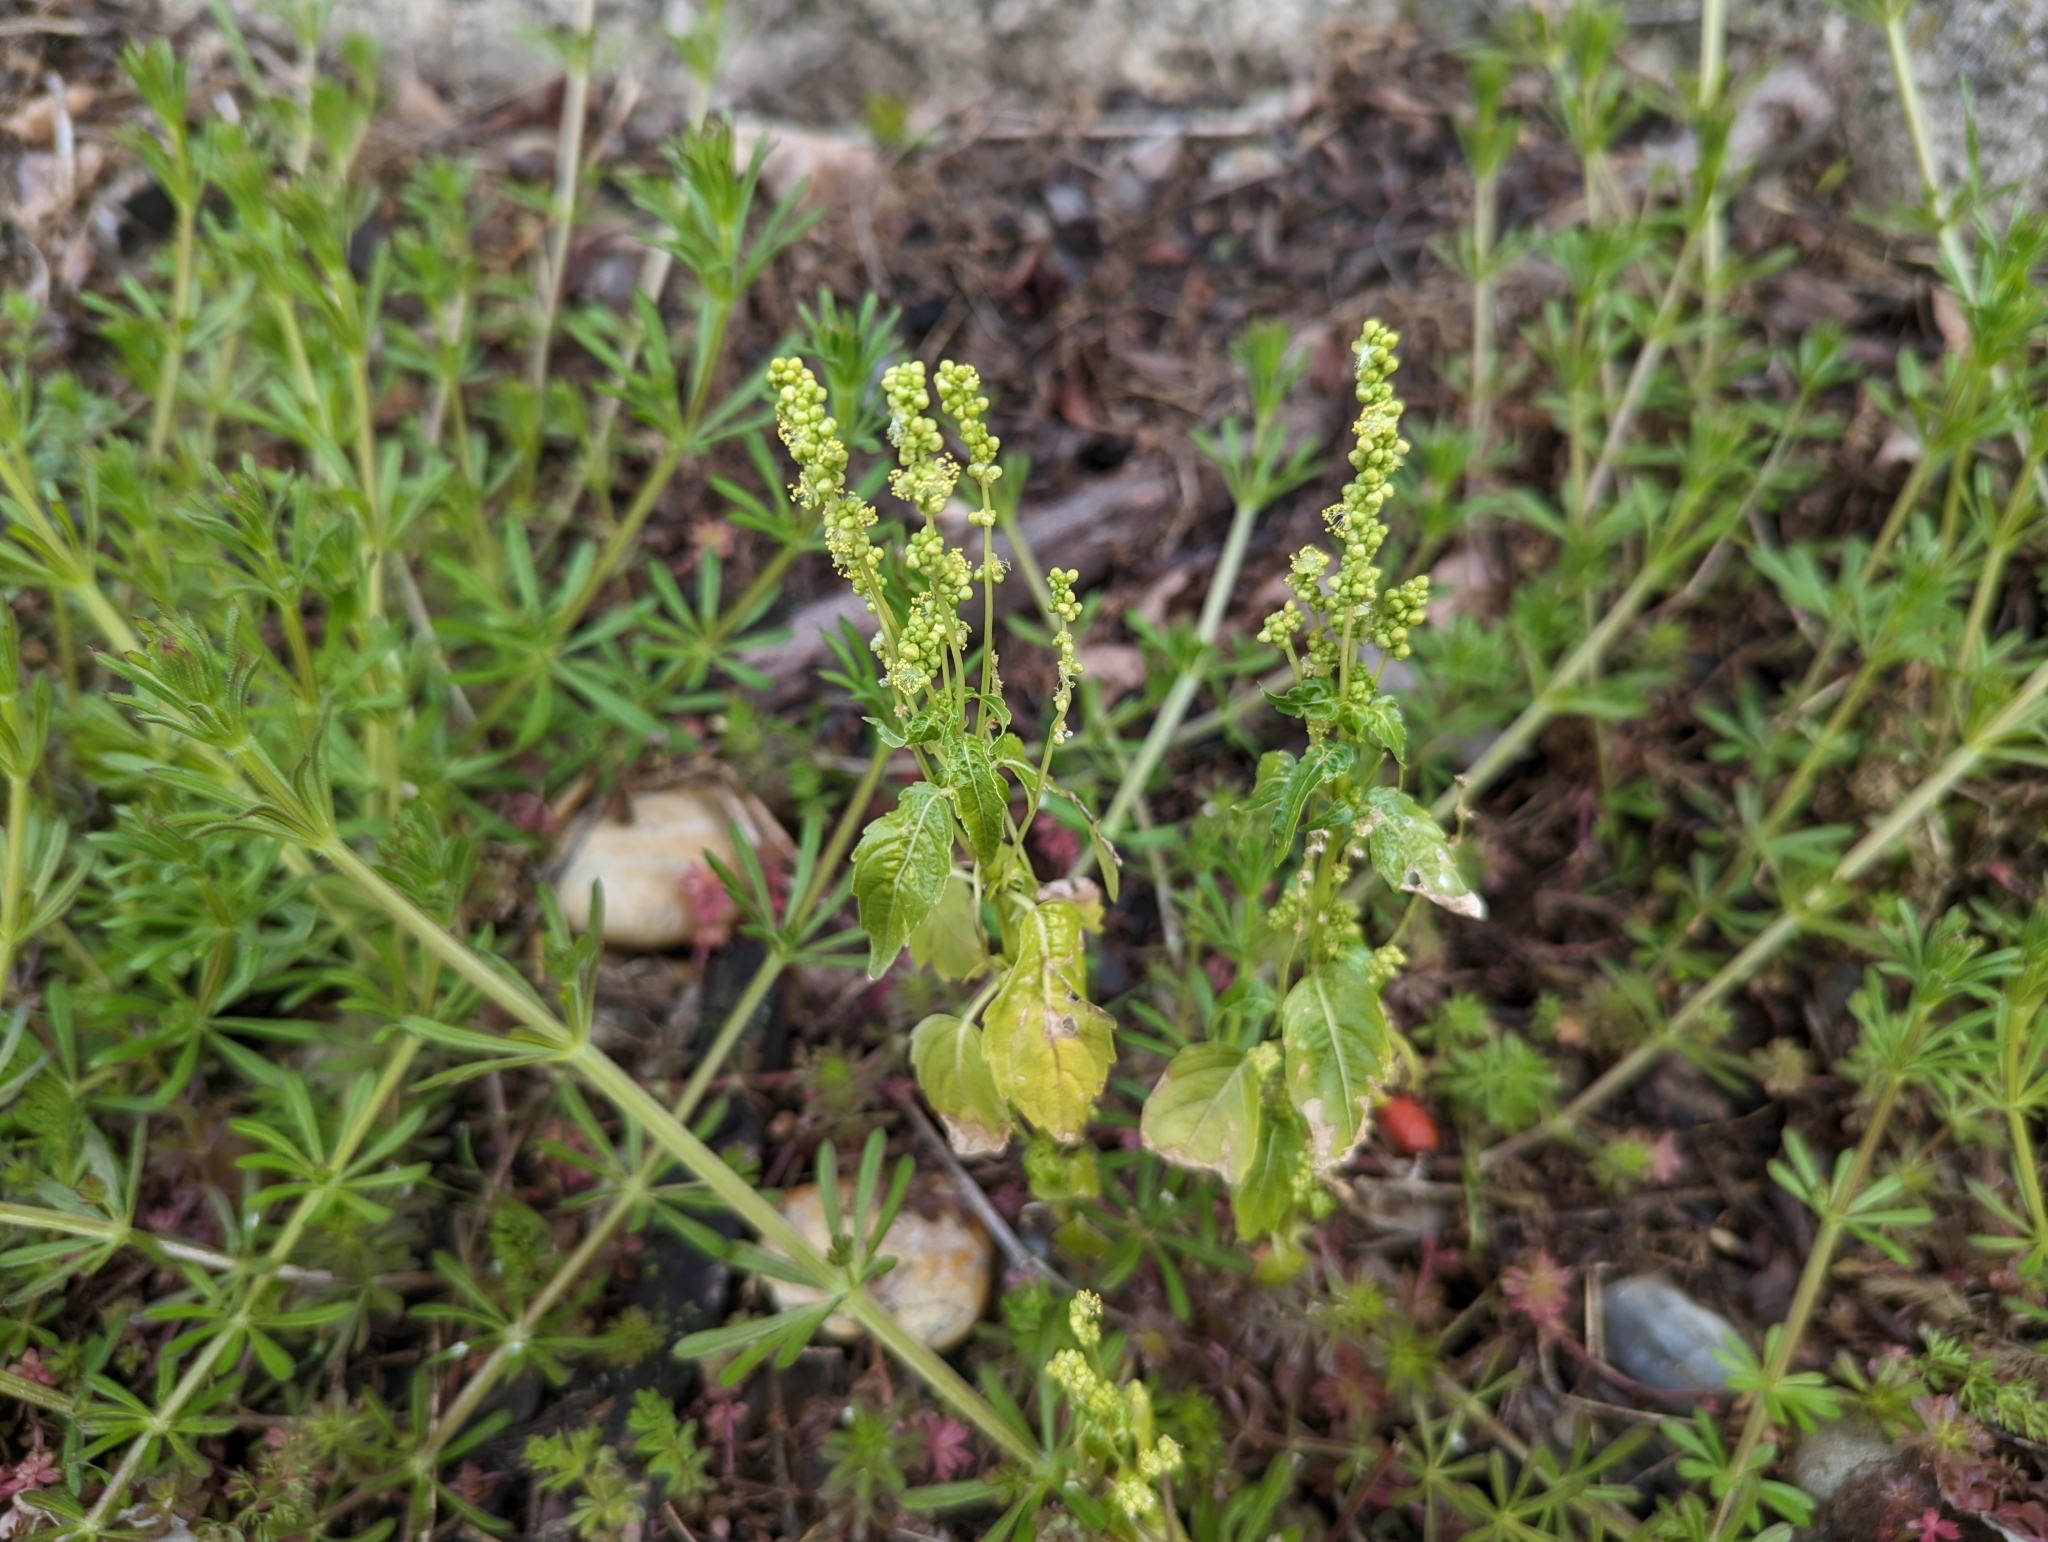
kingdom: Plantae
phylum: Tracheophyta
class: Magnoliopsida
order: Malpighiales
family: Euphorbiaceae
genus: Mercurialis
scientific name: Mercurialis annua
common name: Annual mercury
